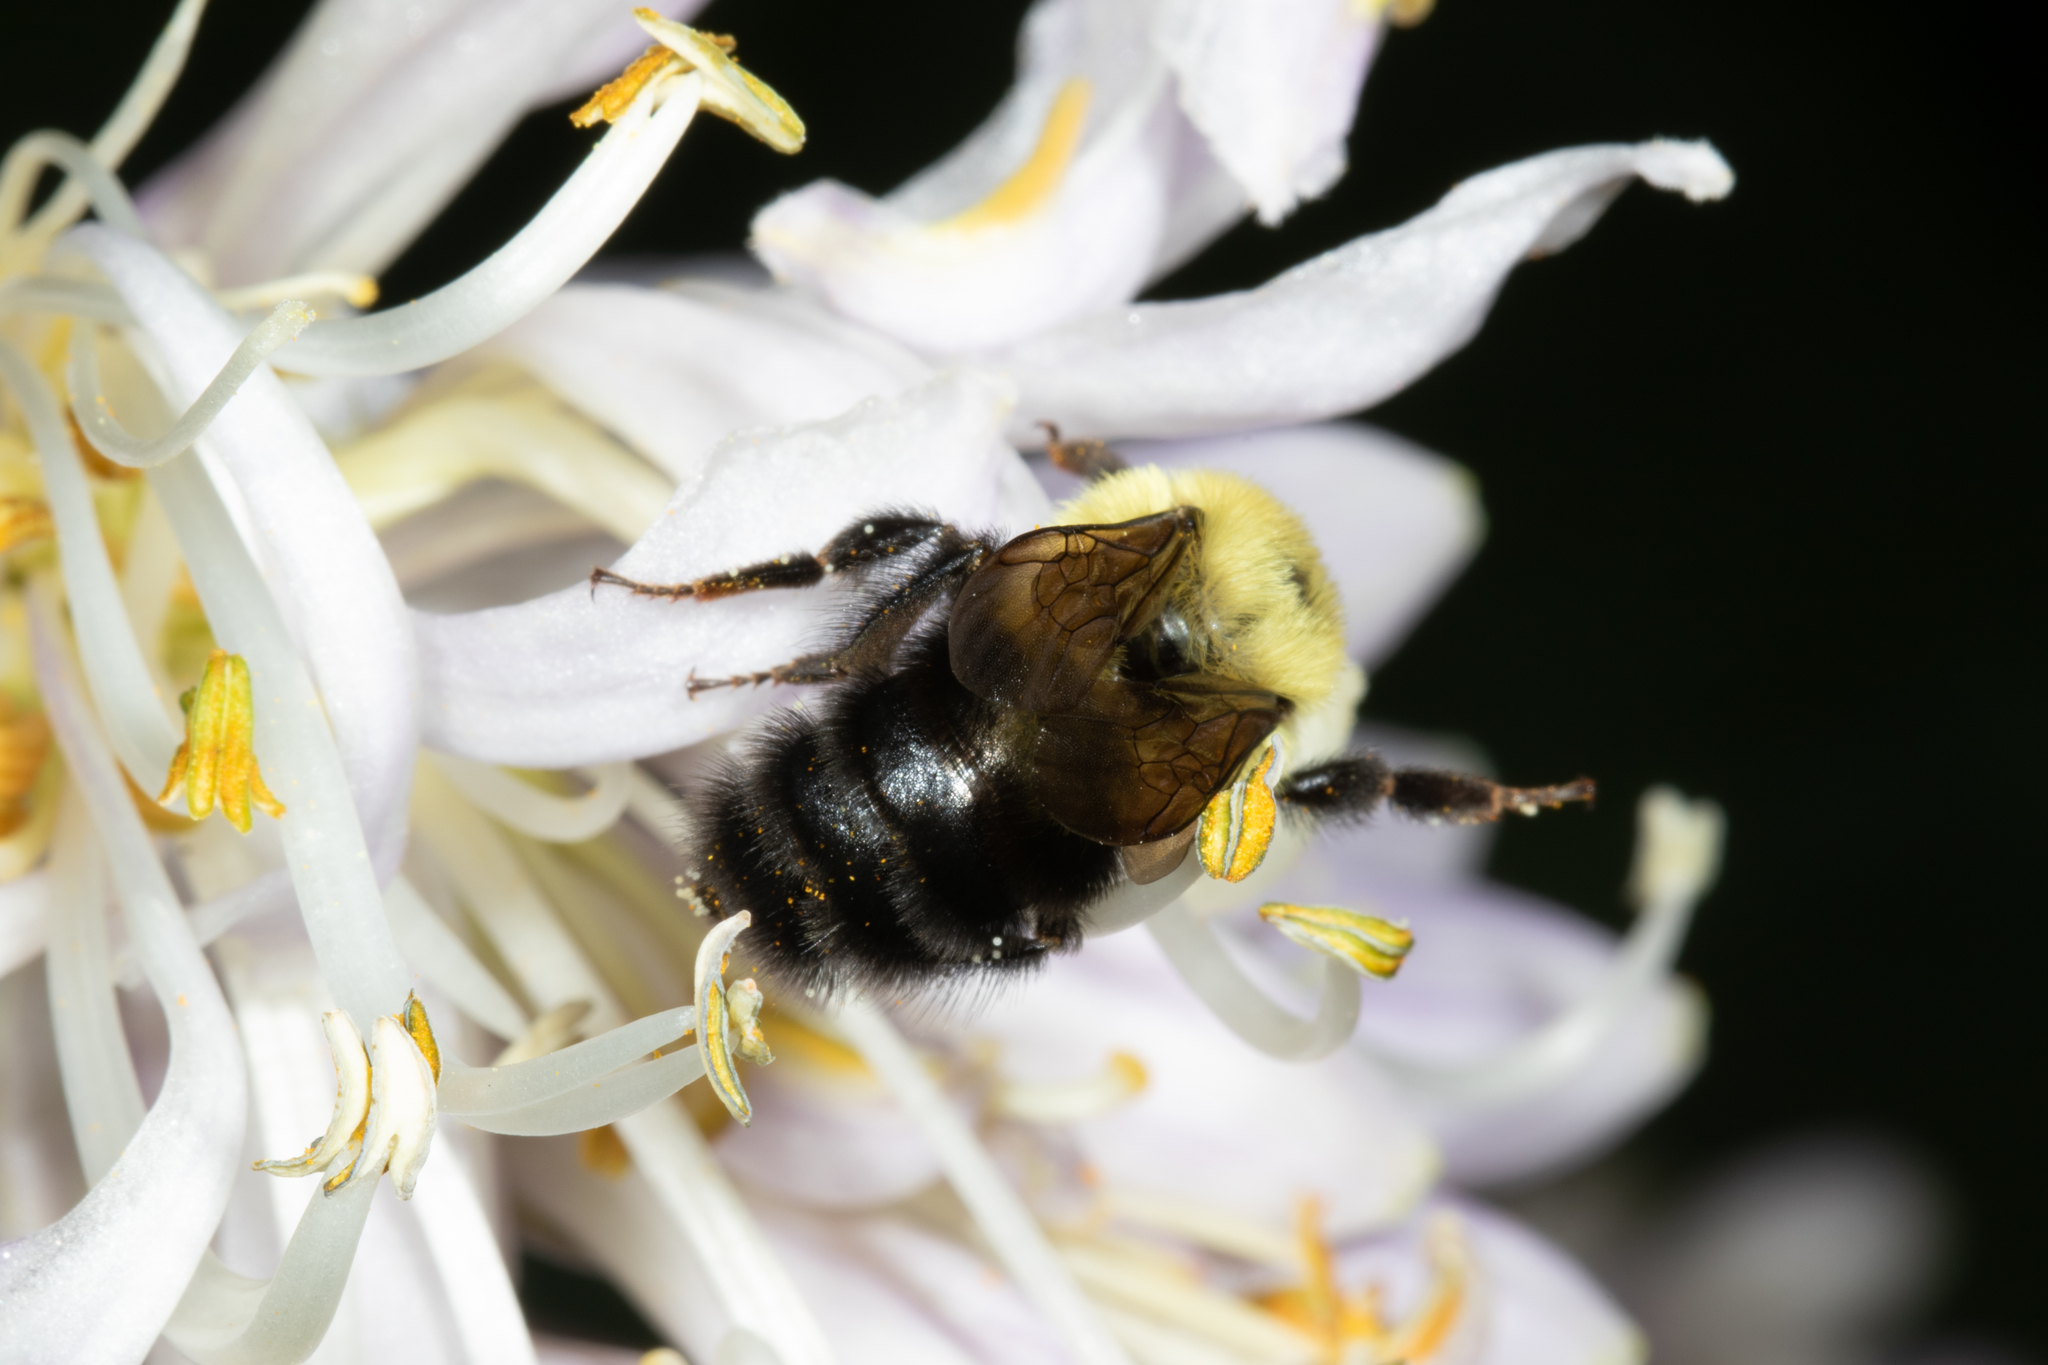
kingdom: Animalia
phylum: Arthropoda
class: Insecta
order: Hymenoptera
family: Apidae
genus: Bombus
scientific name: Bombus bimaculatus
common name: Two-spotted bumble bee
